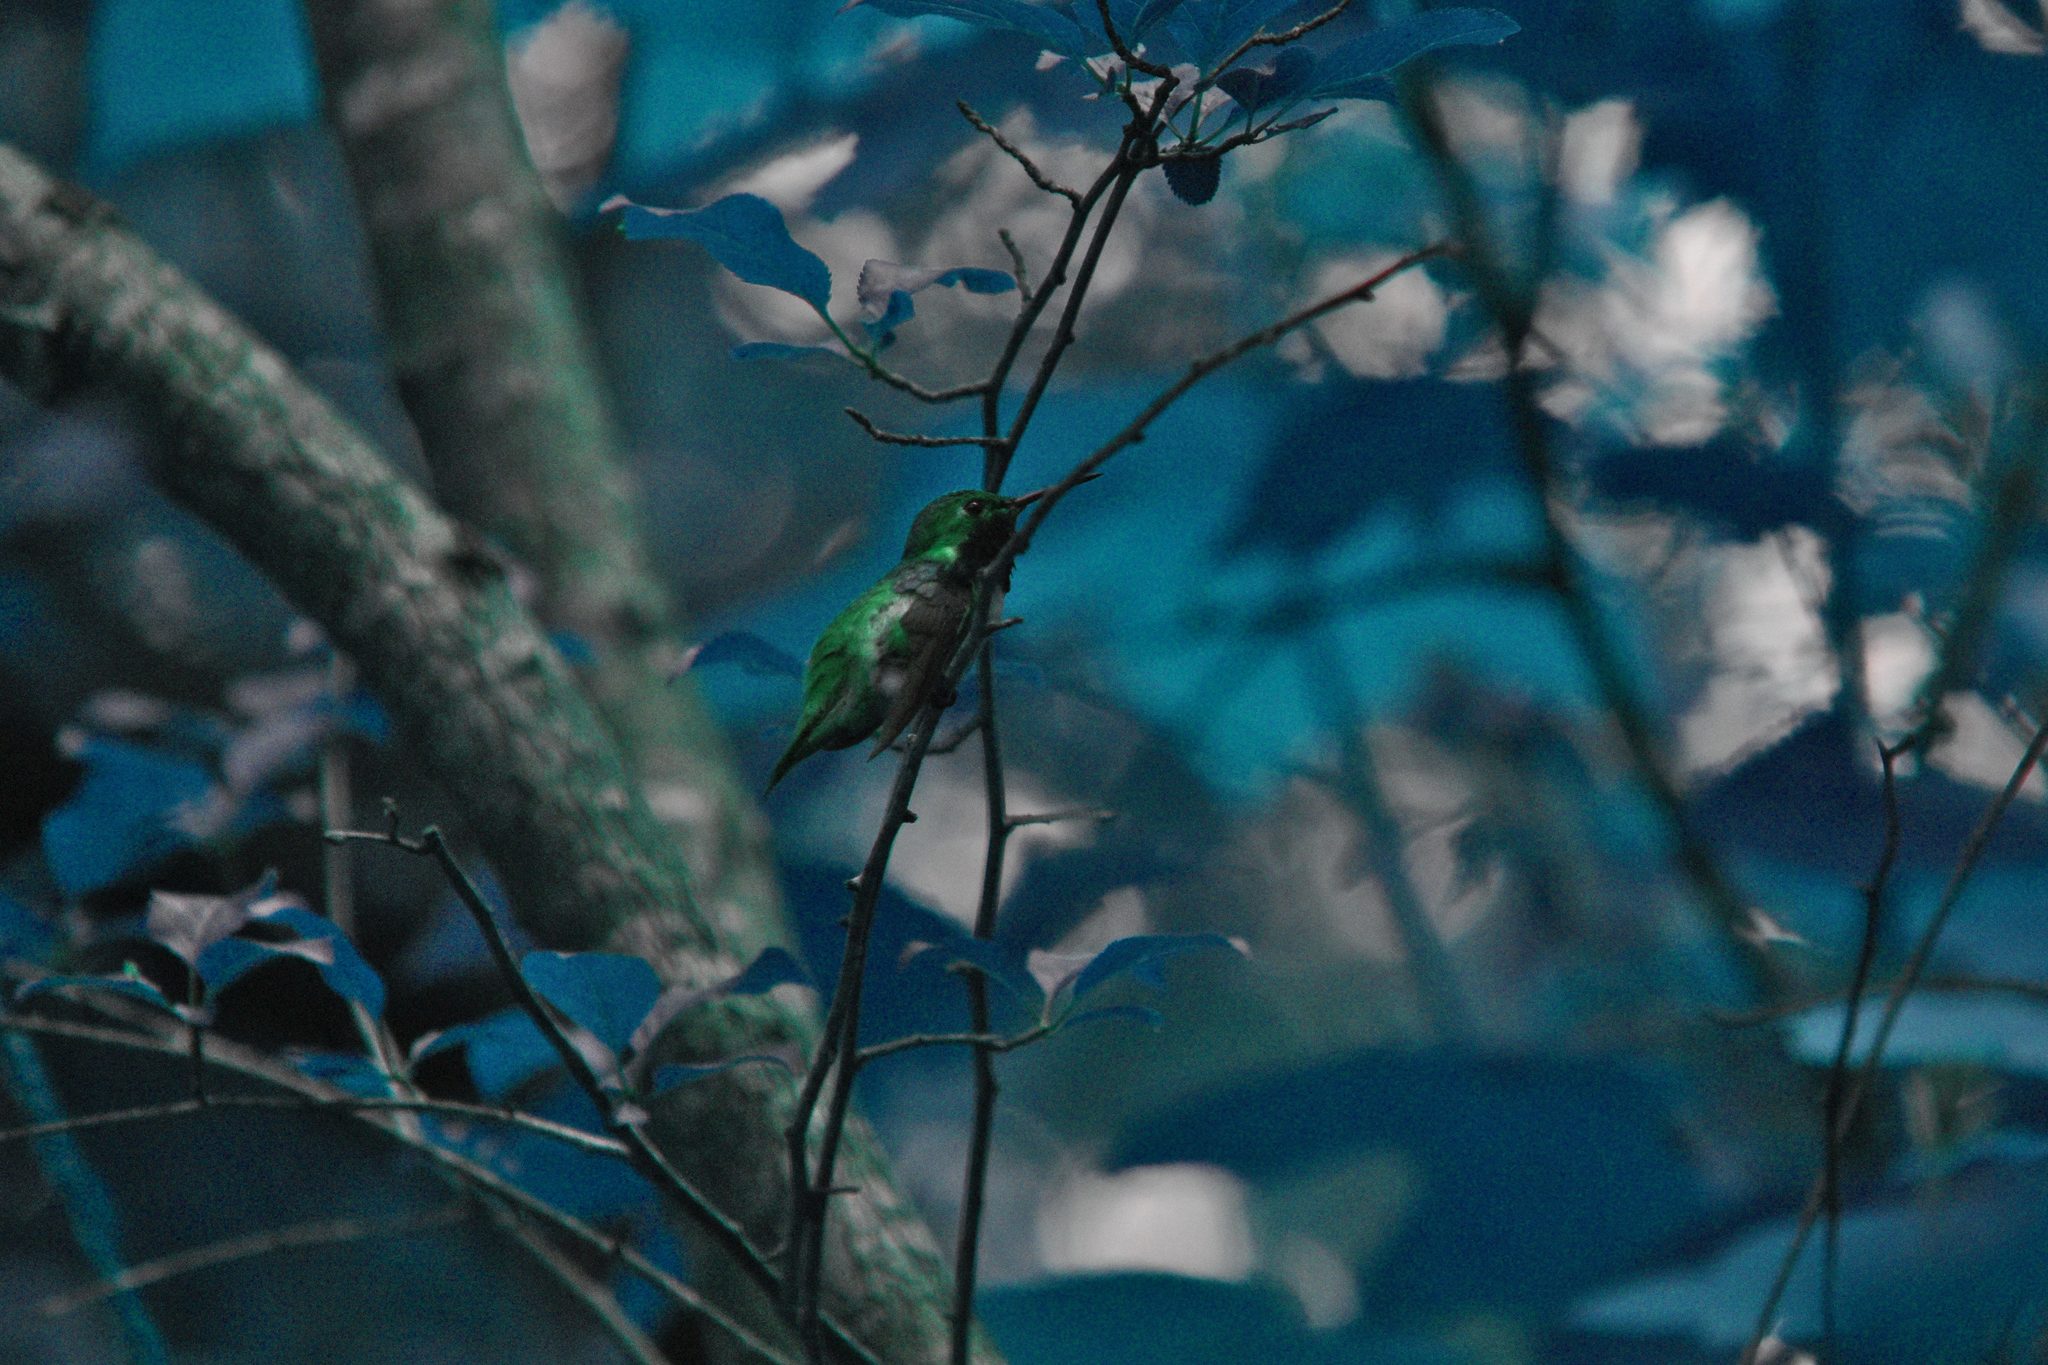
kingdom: Animalia
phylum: Chordata
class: Aves
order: Apodiformes
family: Trochilidae
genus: Selasphorus
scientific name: Selasphorus sasin
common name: Allen's hummingbird
